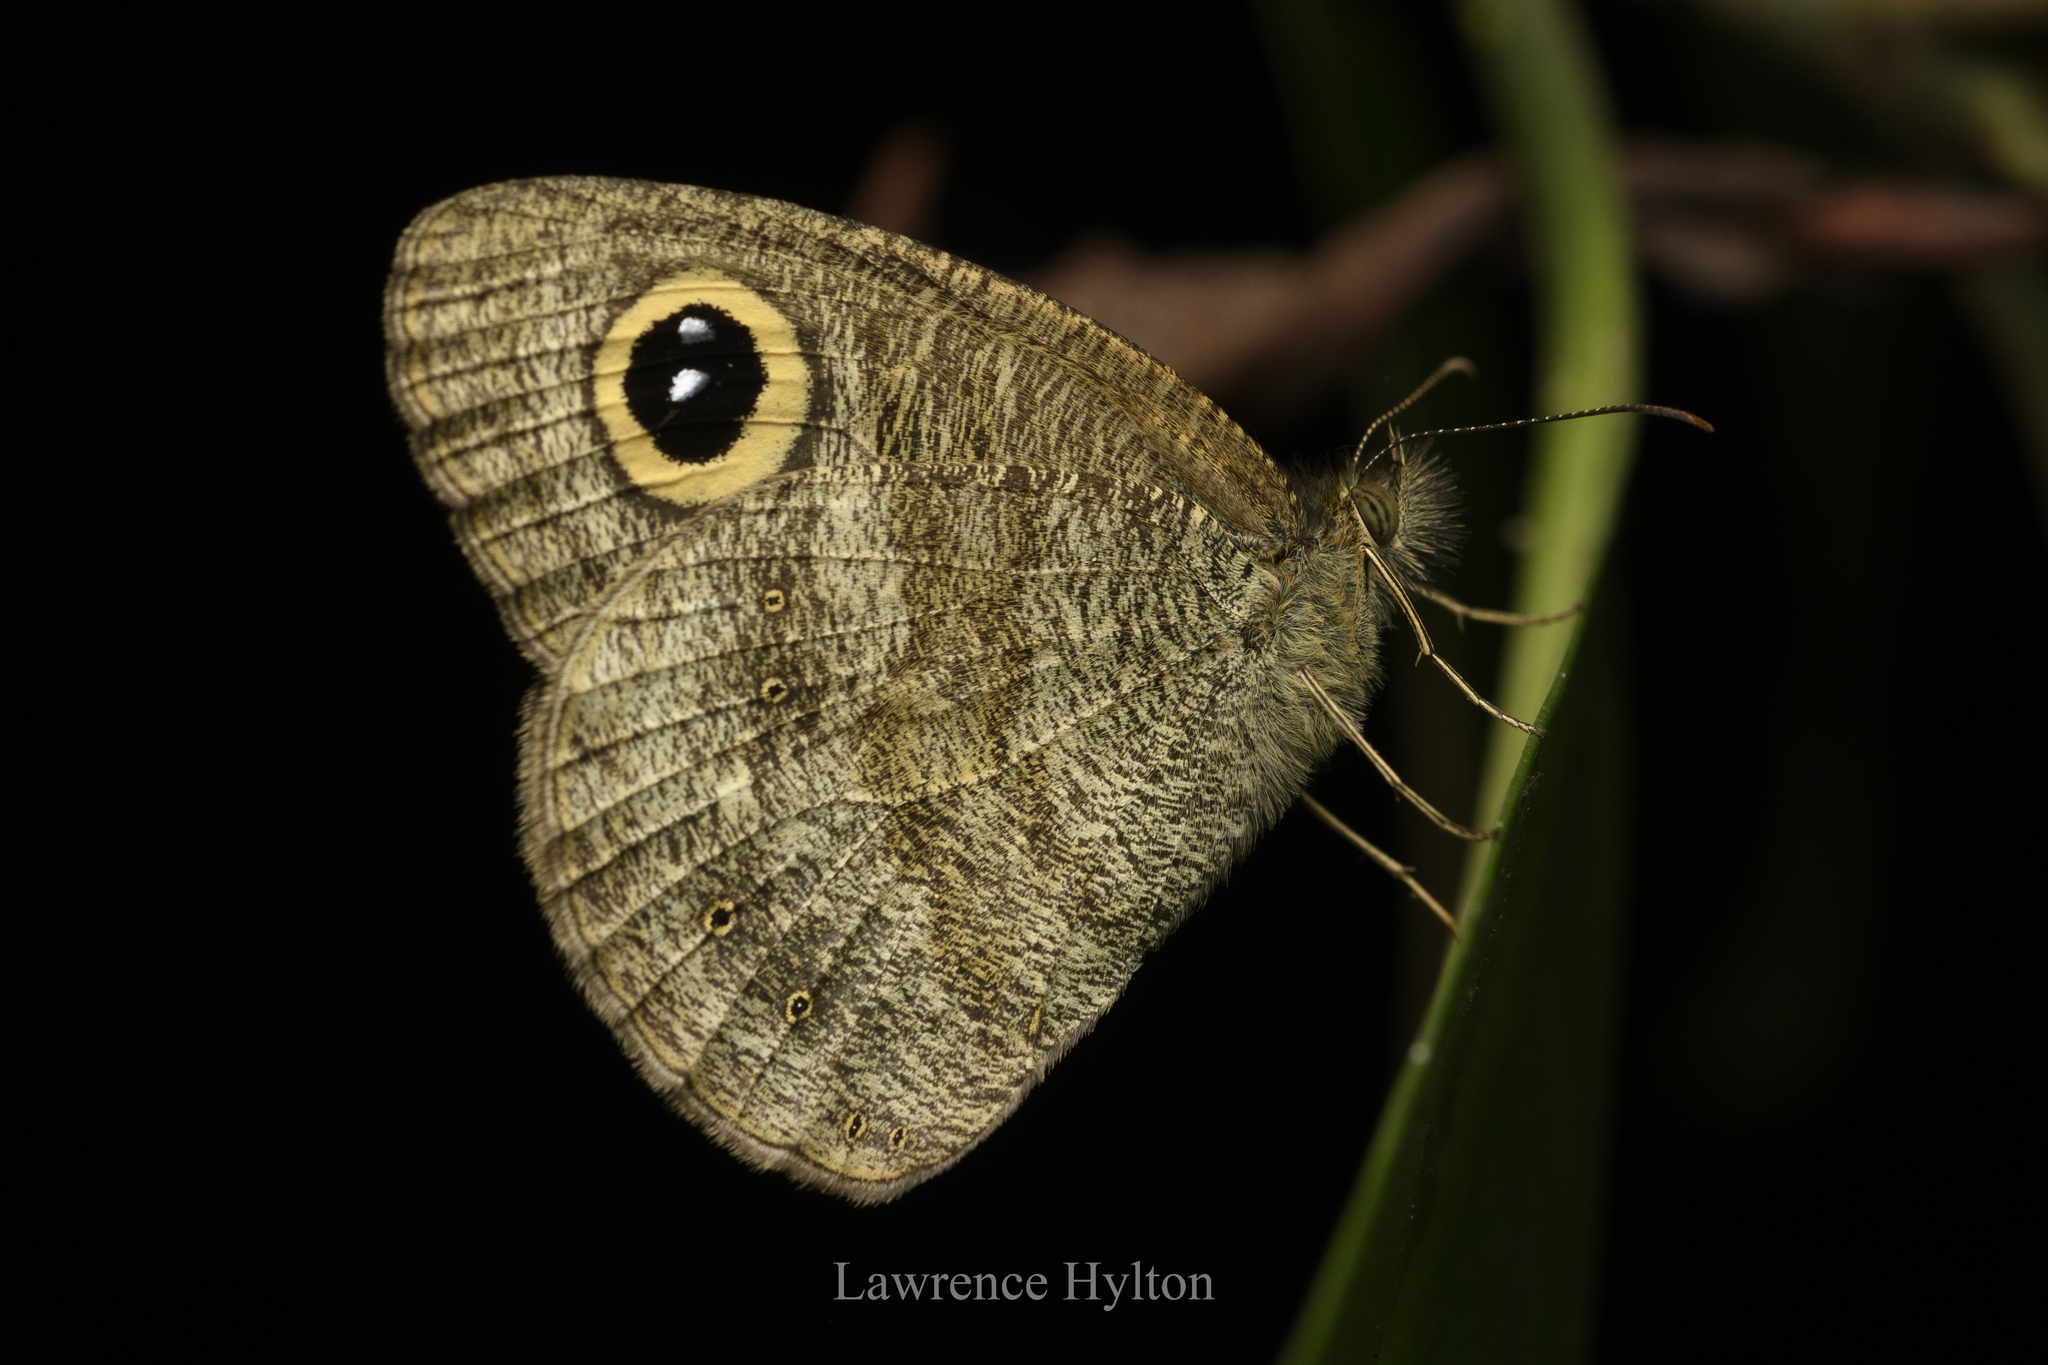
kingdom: Animalia
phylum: Arthropoda
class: Insecta
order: Lepidoptera
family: Nymphalidae
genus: Ypthima
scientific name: Ypthima baldus
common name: Common five-ring
